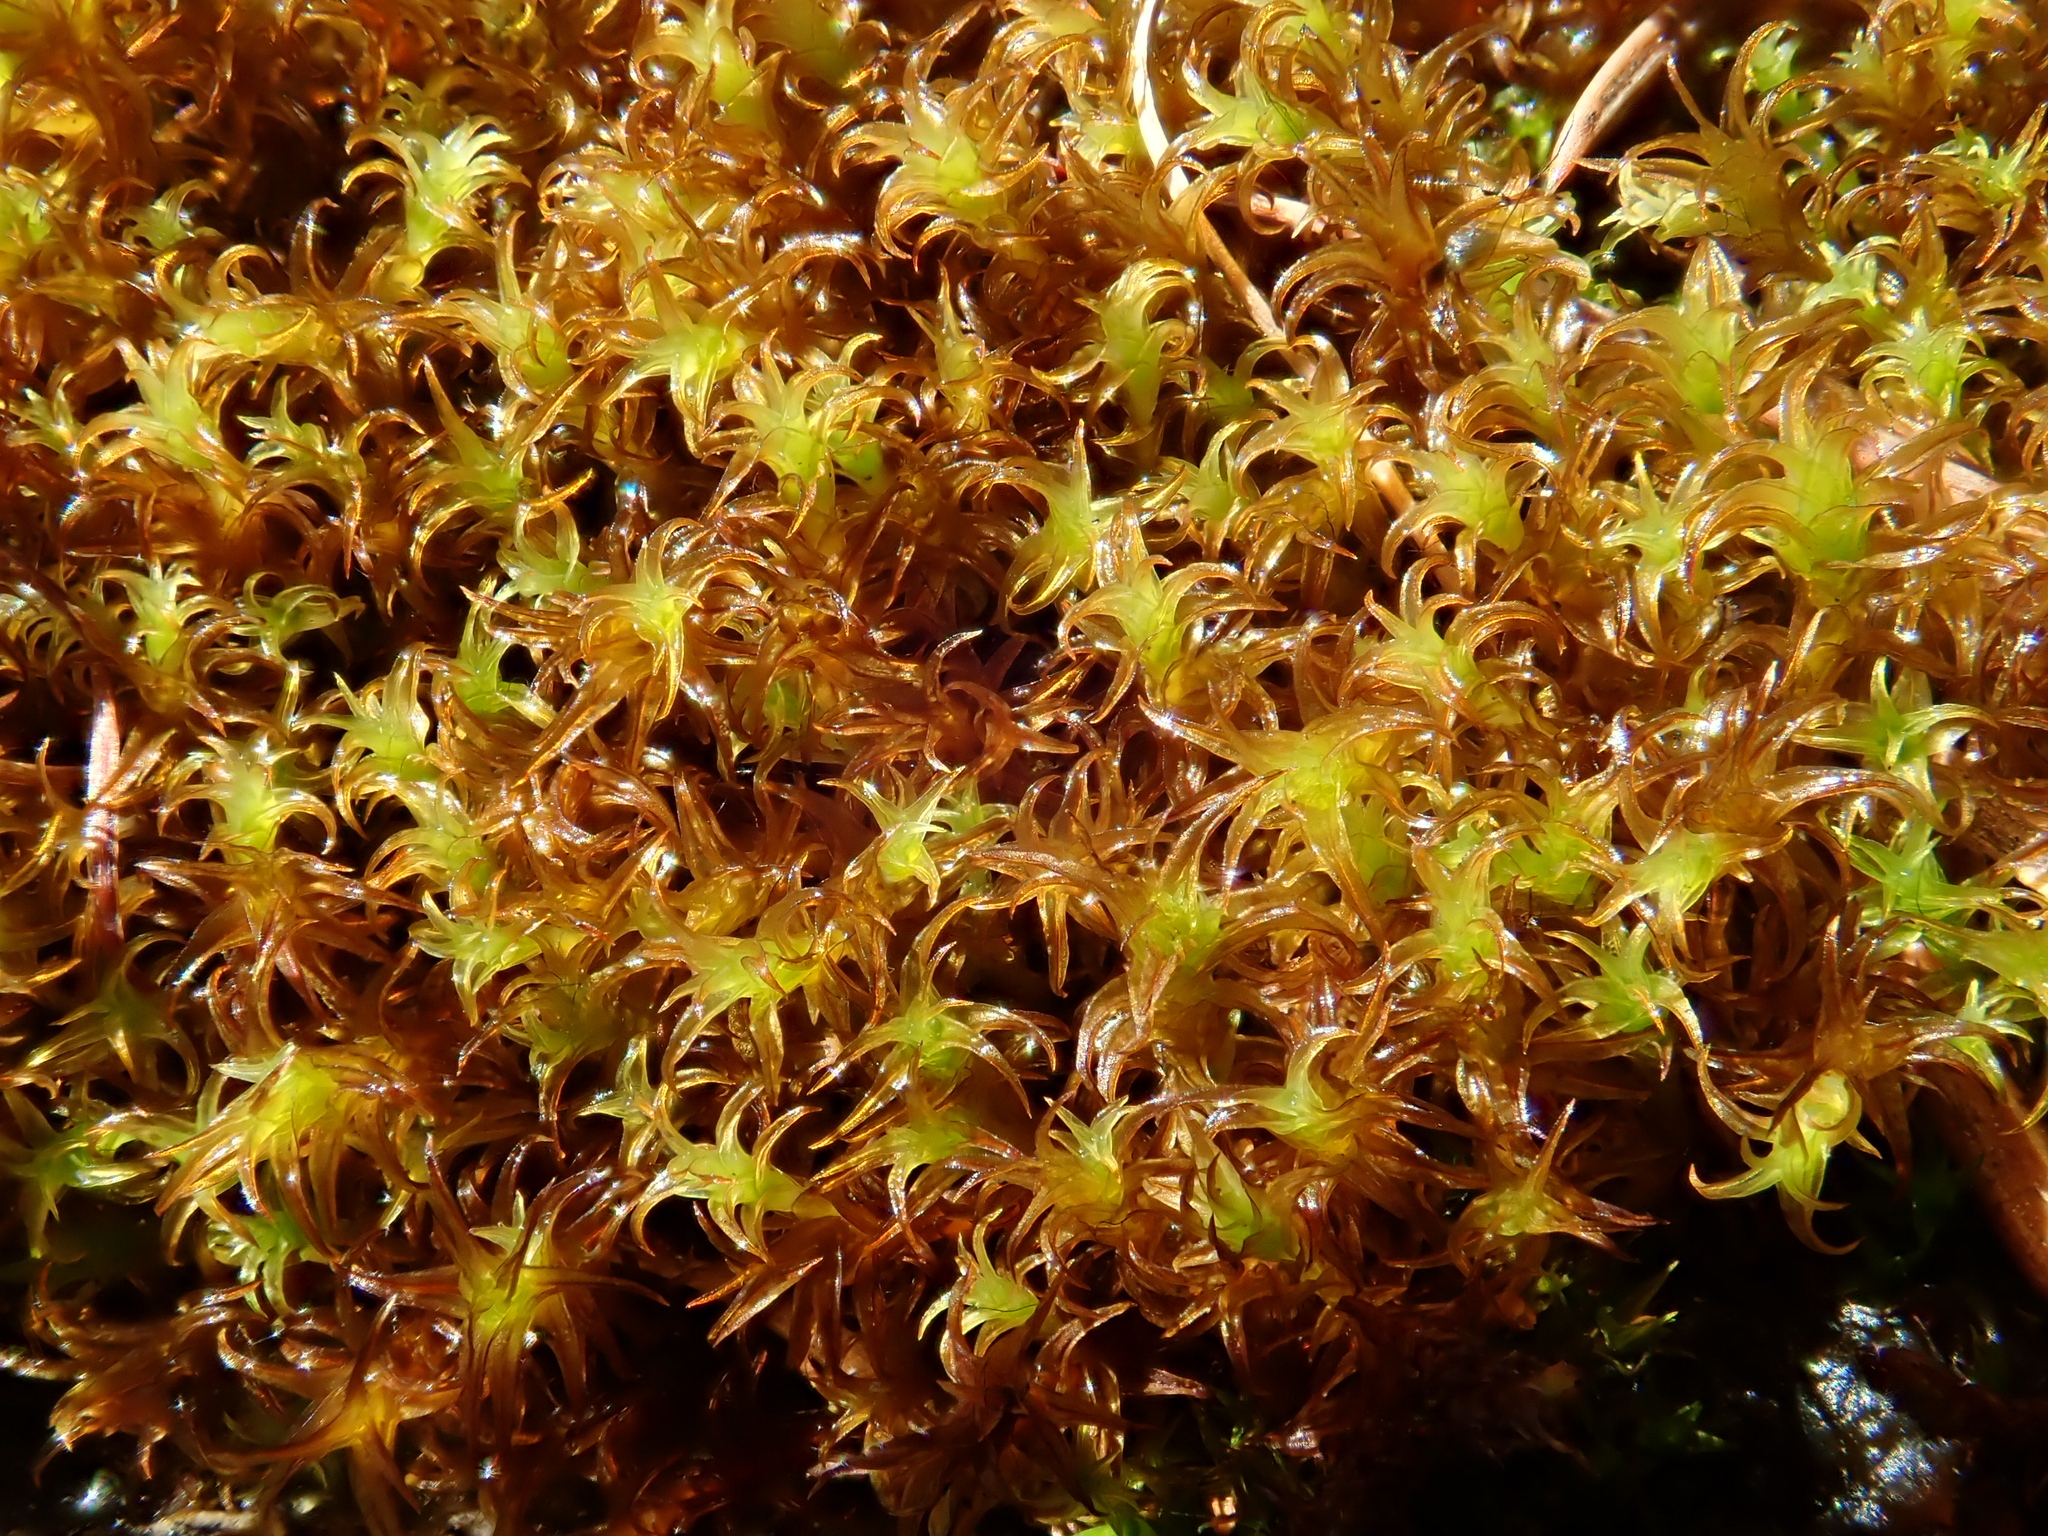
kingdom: Plantae
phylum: Bryophyta
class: Bryopsida
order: Pottiales
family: Pottiaceae
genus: Geheebia
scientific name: Geheebia ferruginea
